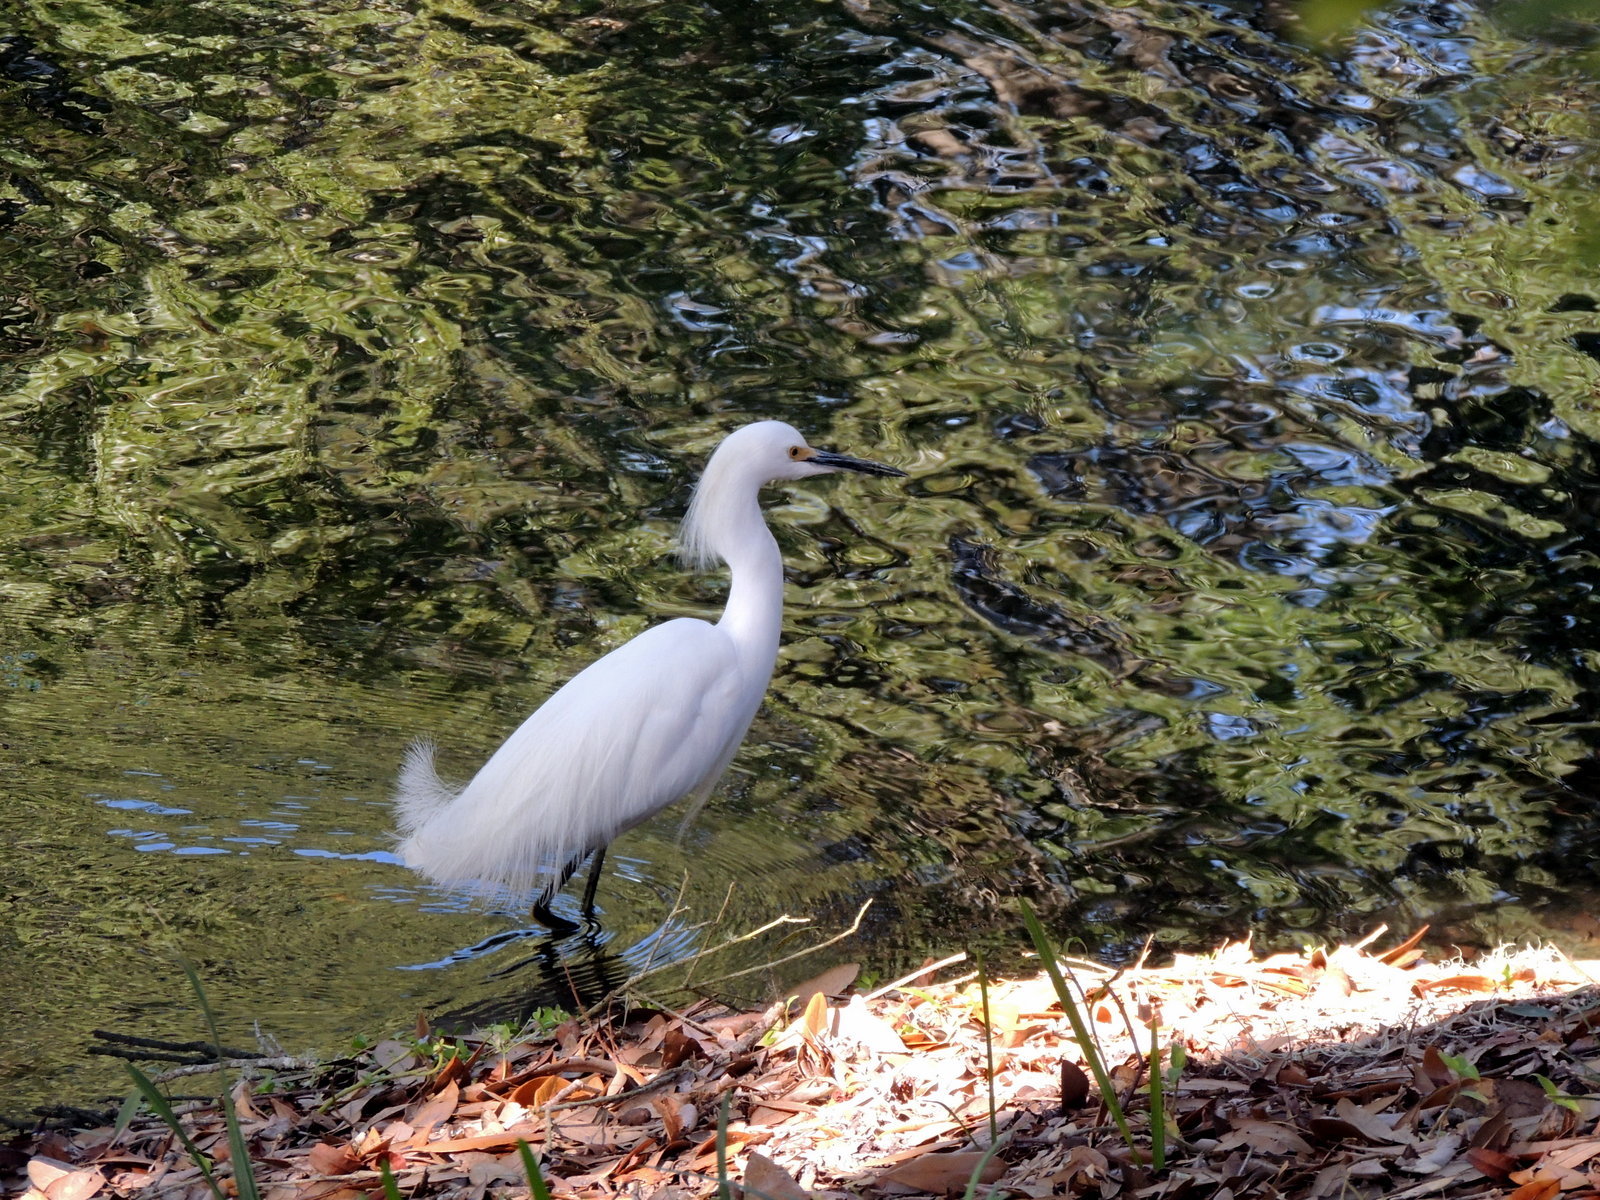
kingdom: Animalia
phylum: Chordata
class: Aves
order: Pelecaniformes
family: Ardeidae
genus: Egretta
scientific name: Egretta thula
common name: Snowy egret
